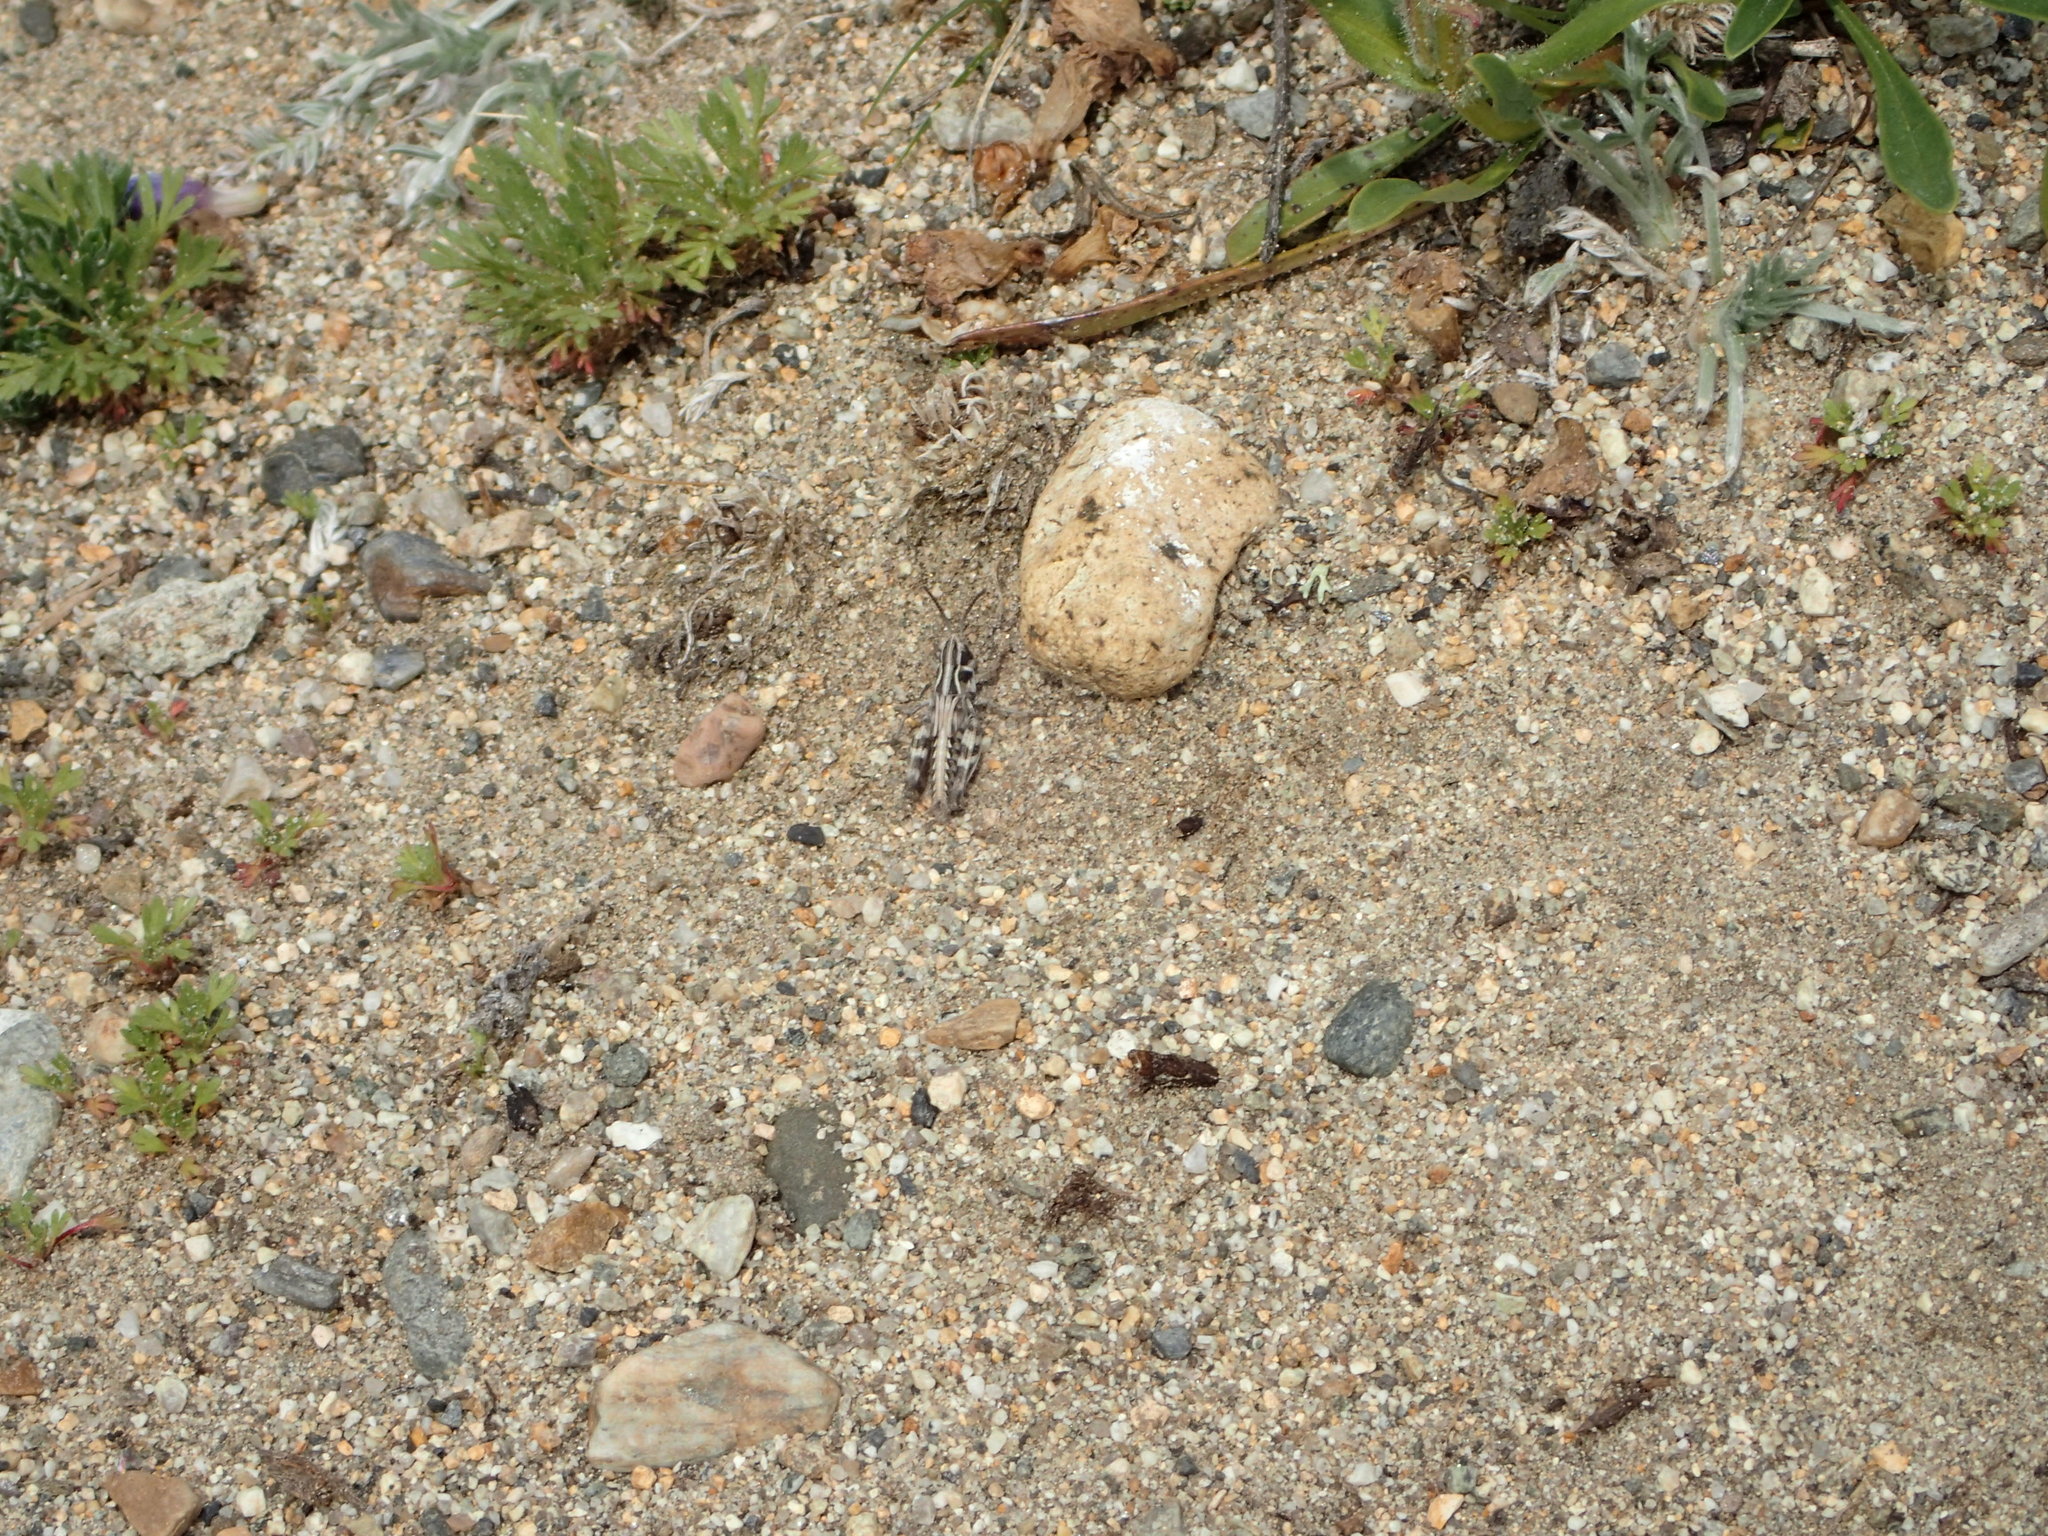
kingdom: Animalia
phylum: Arthropoda
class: Insecta
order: Orthoptera
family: Acrididae
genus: Bruneria
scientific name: Bruneria yukonensis
